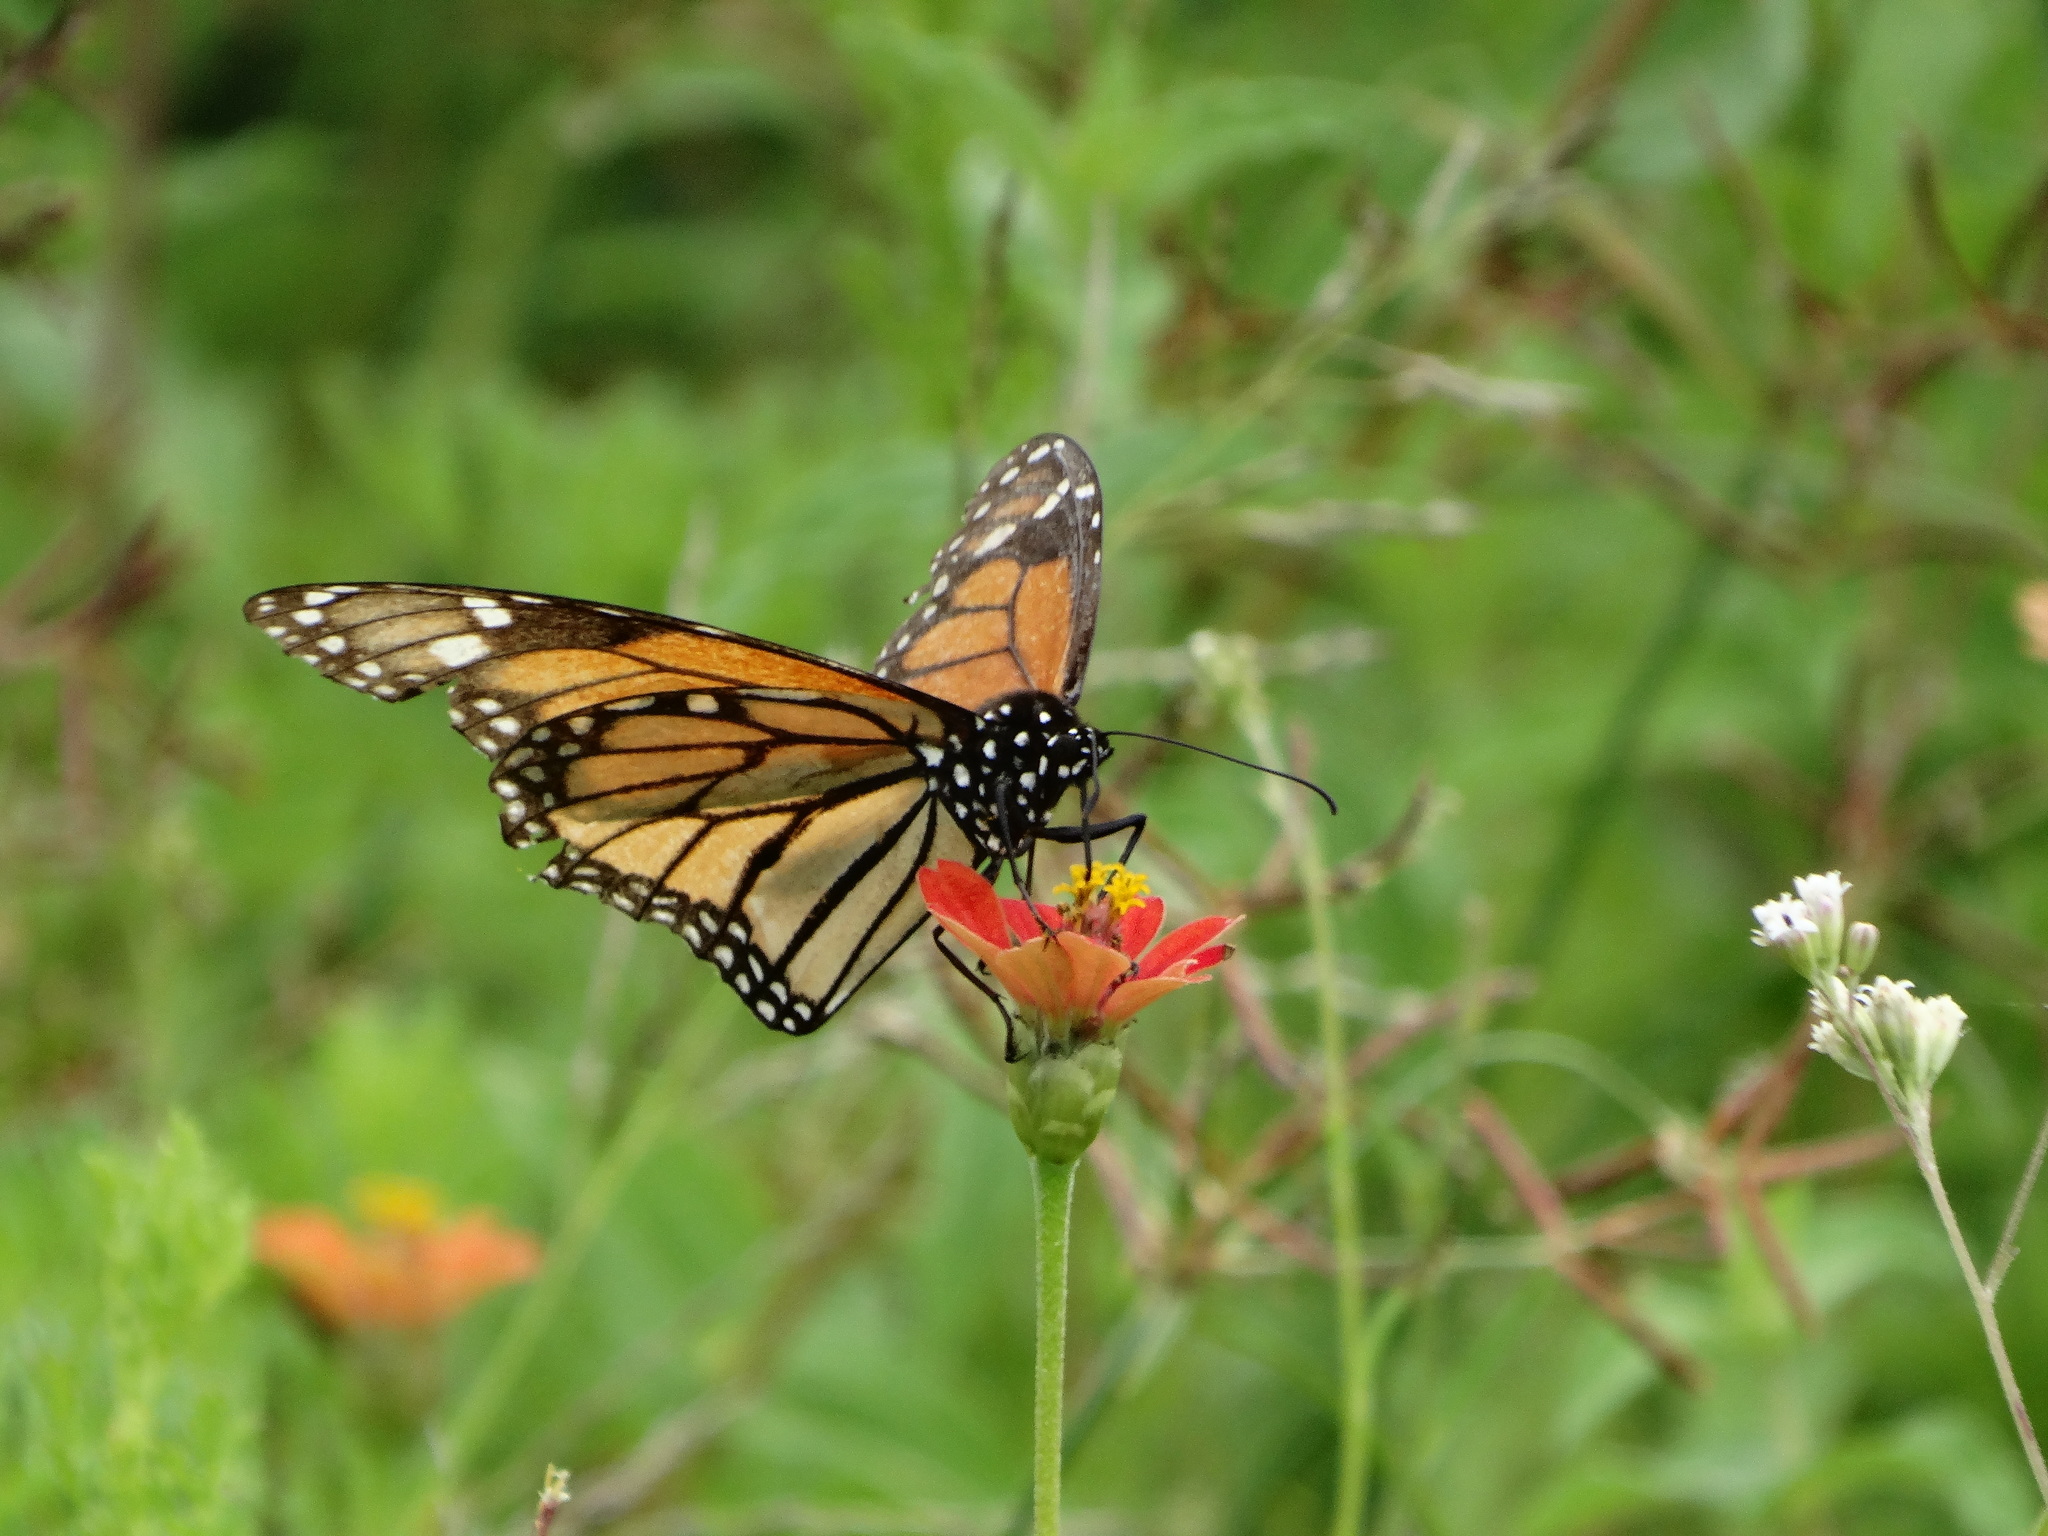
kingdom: Animalia
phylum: Arthropoda
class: Insecta
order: Lepidoptera
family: Nymphalidae
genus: Danaus
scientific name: Danaus plexippus
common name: Monarch
